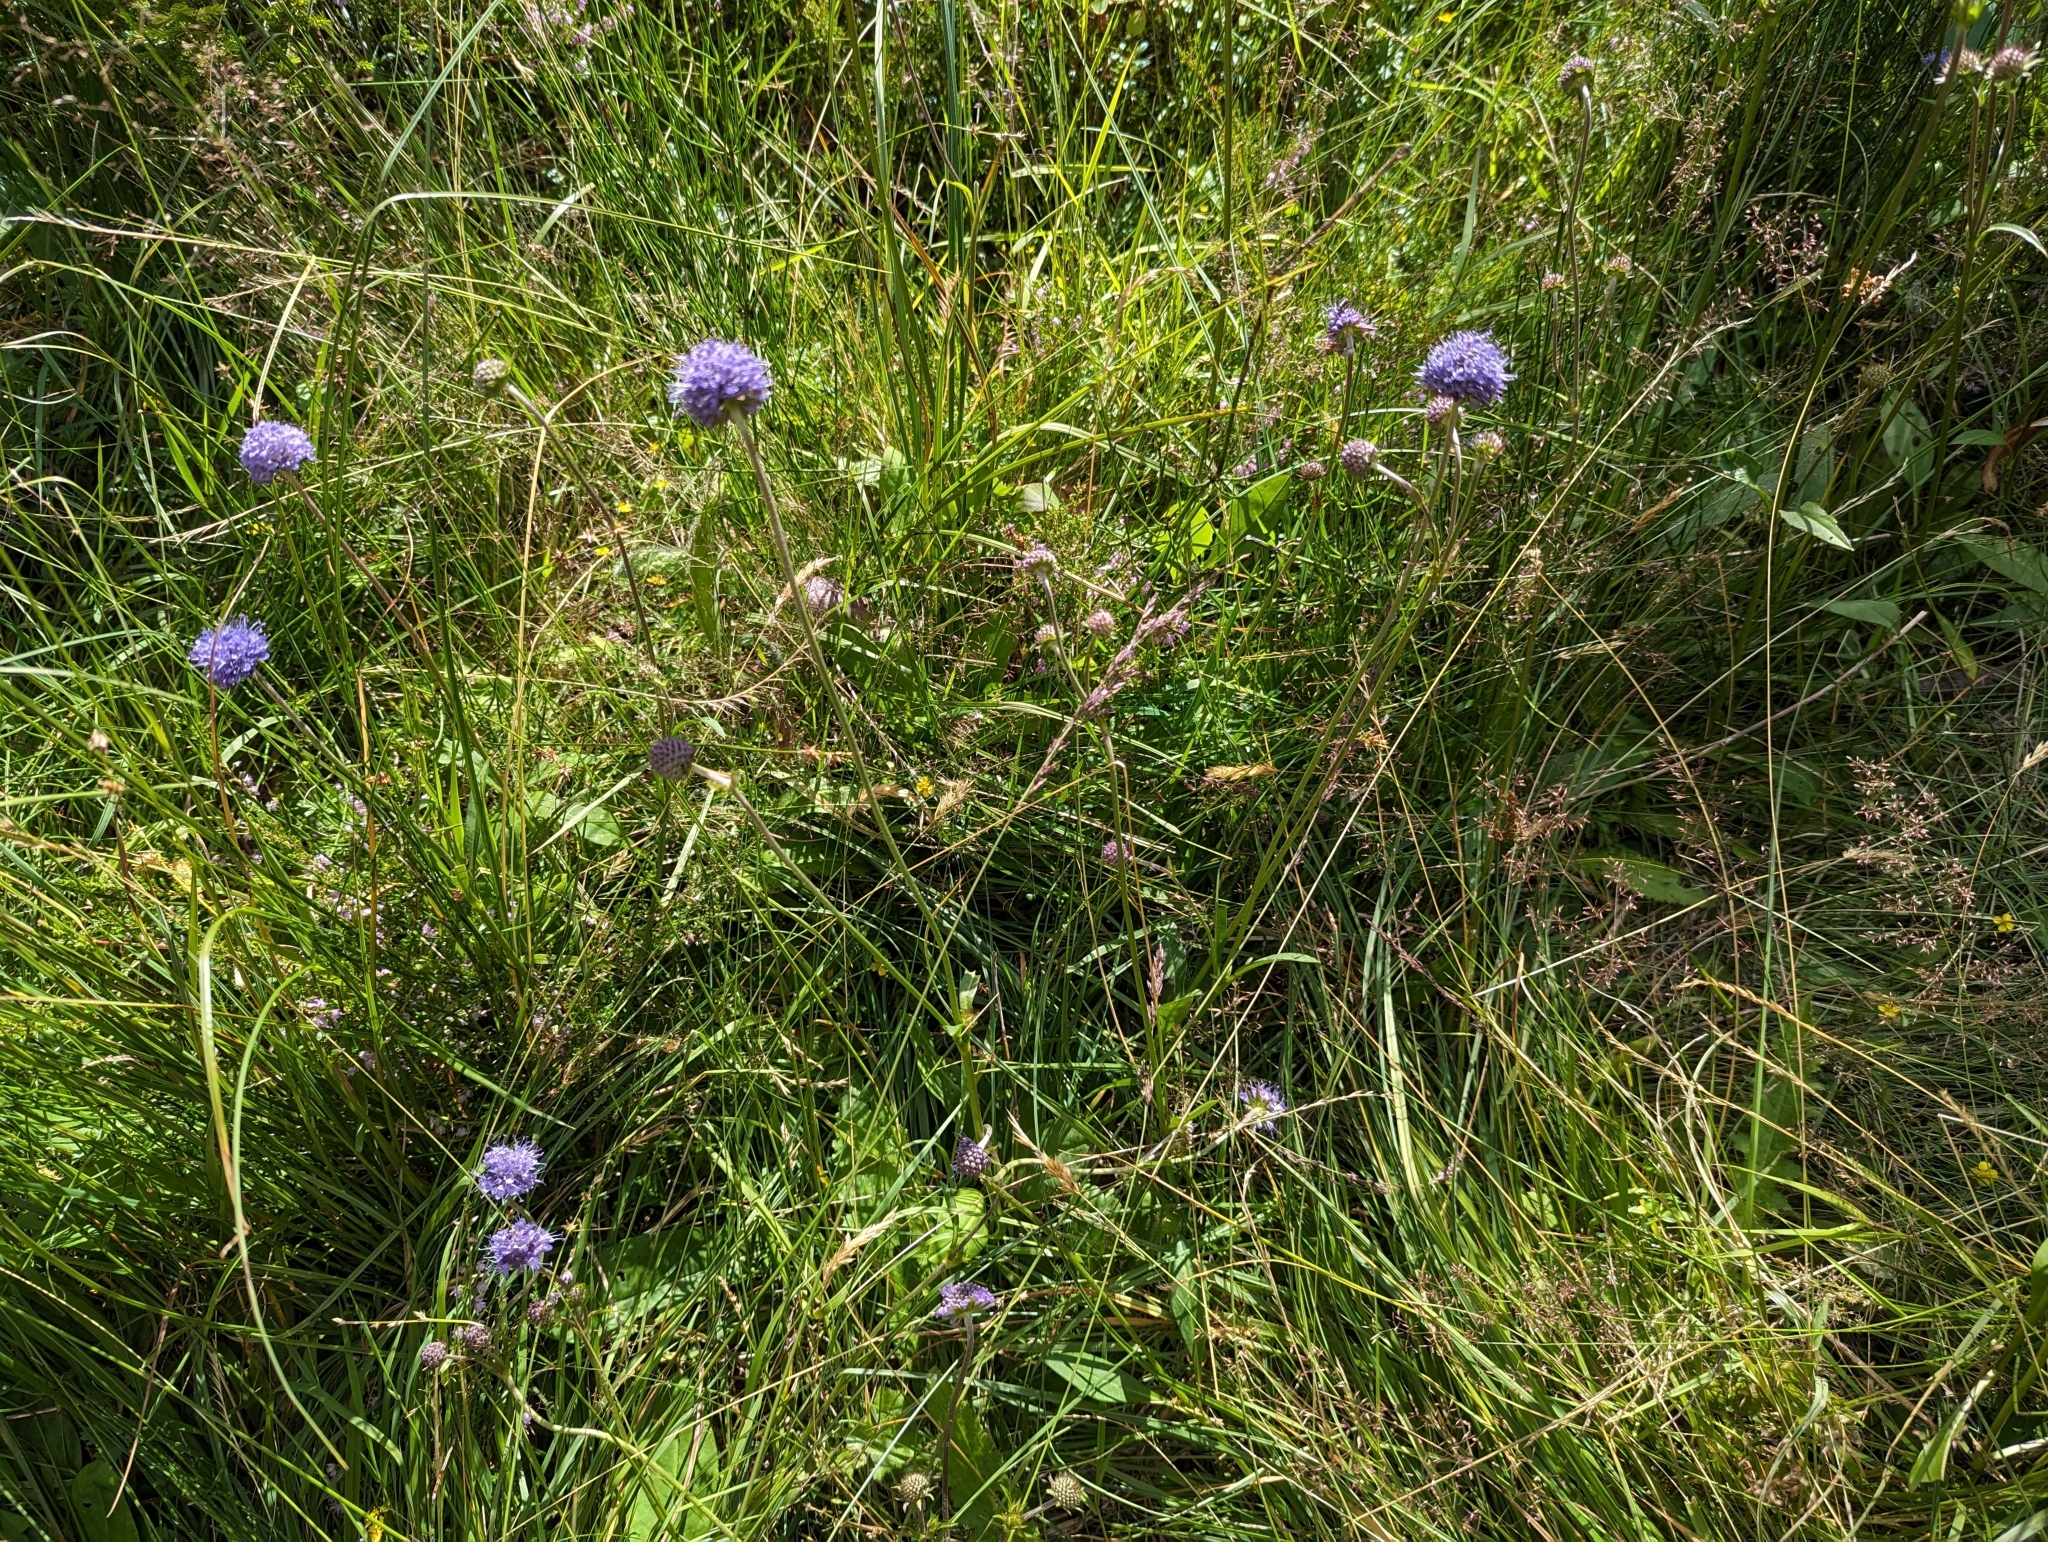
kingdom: Plantae
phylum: Tracheophyta
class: Magnoliopsida
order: Dipsacales
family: Caprifoliaceae
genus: Succisa
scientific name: Succisa pratensis
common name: Devil's-bit
